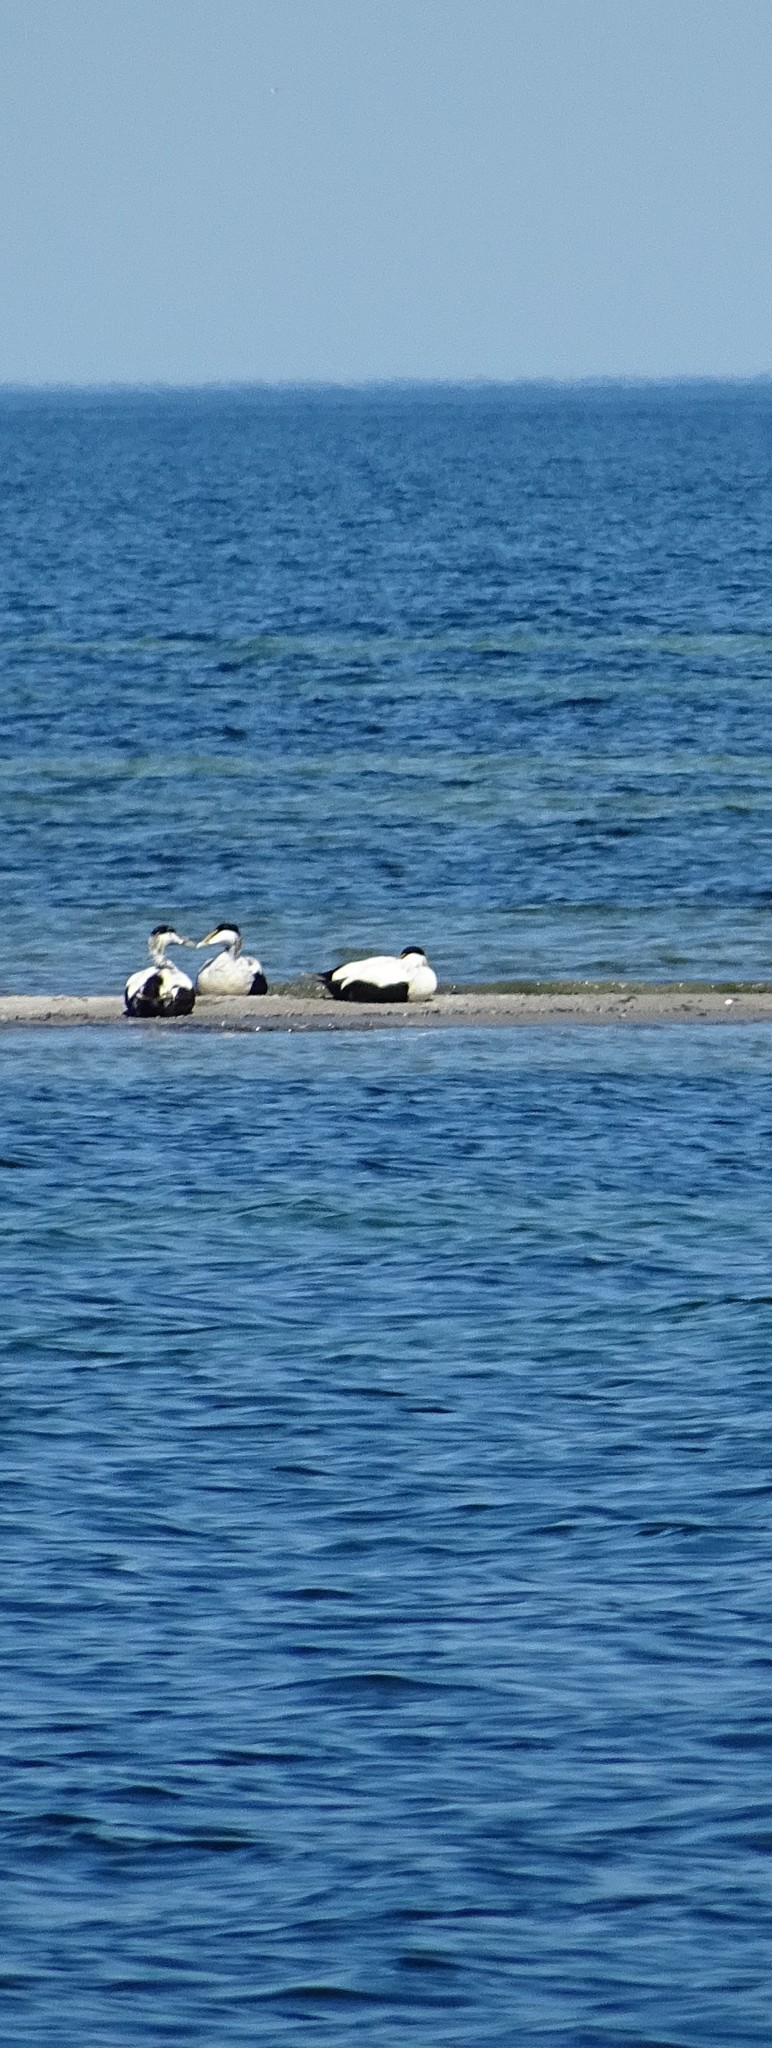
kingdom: Animalia
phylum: Chordata
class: Aves
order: Anseriformes
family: Anatidae
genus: Somateria
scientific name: Somateria mollissima
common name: Common eider
